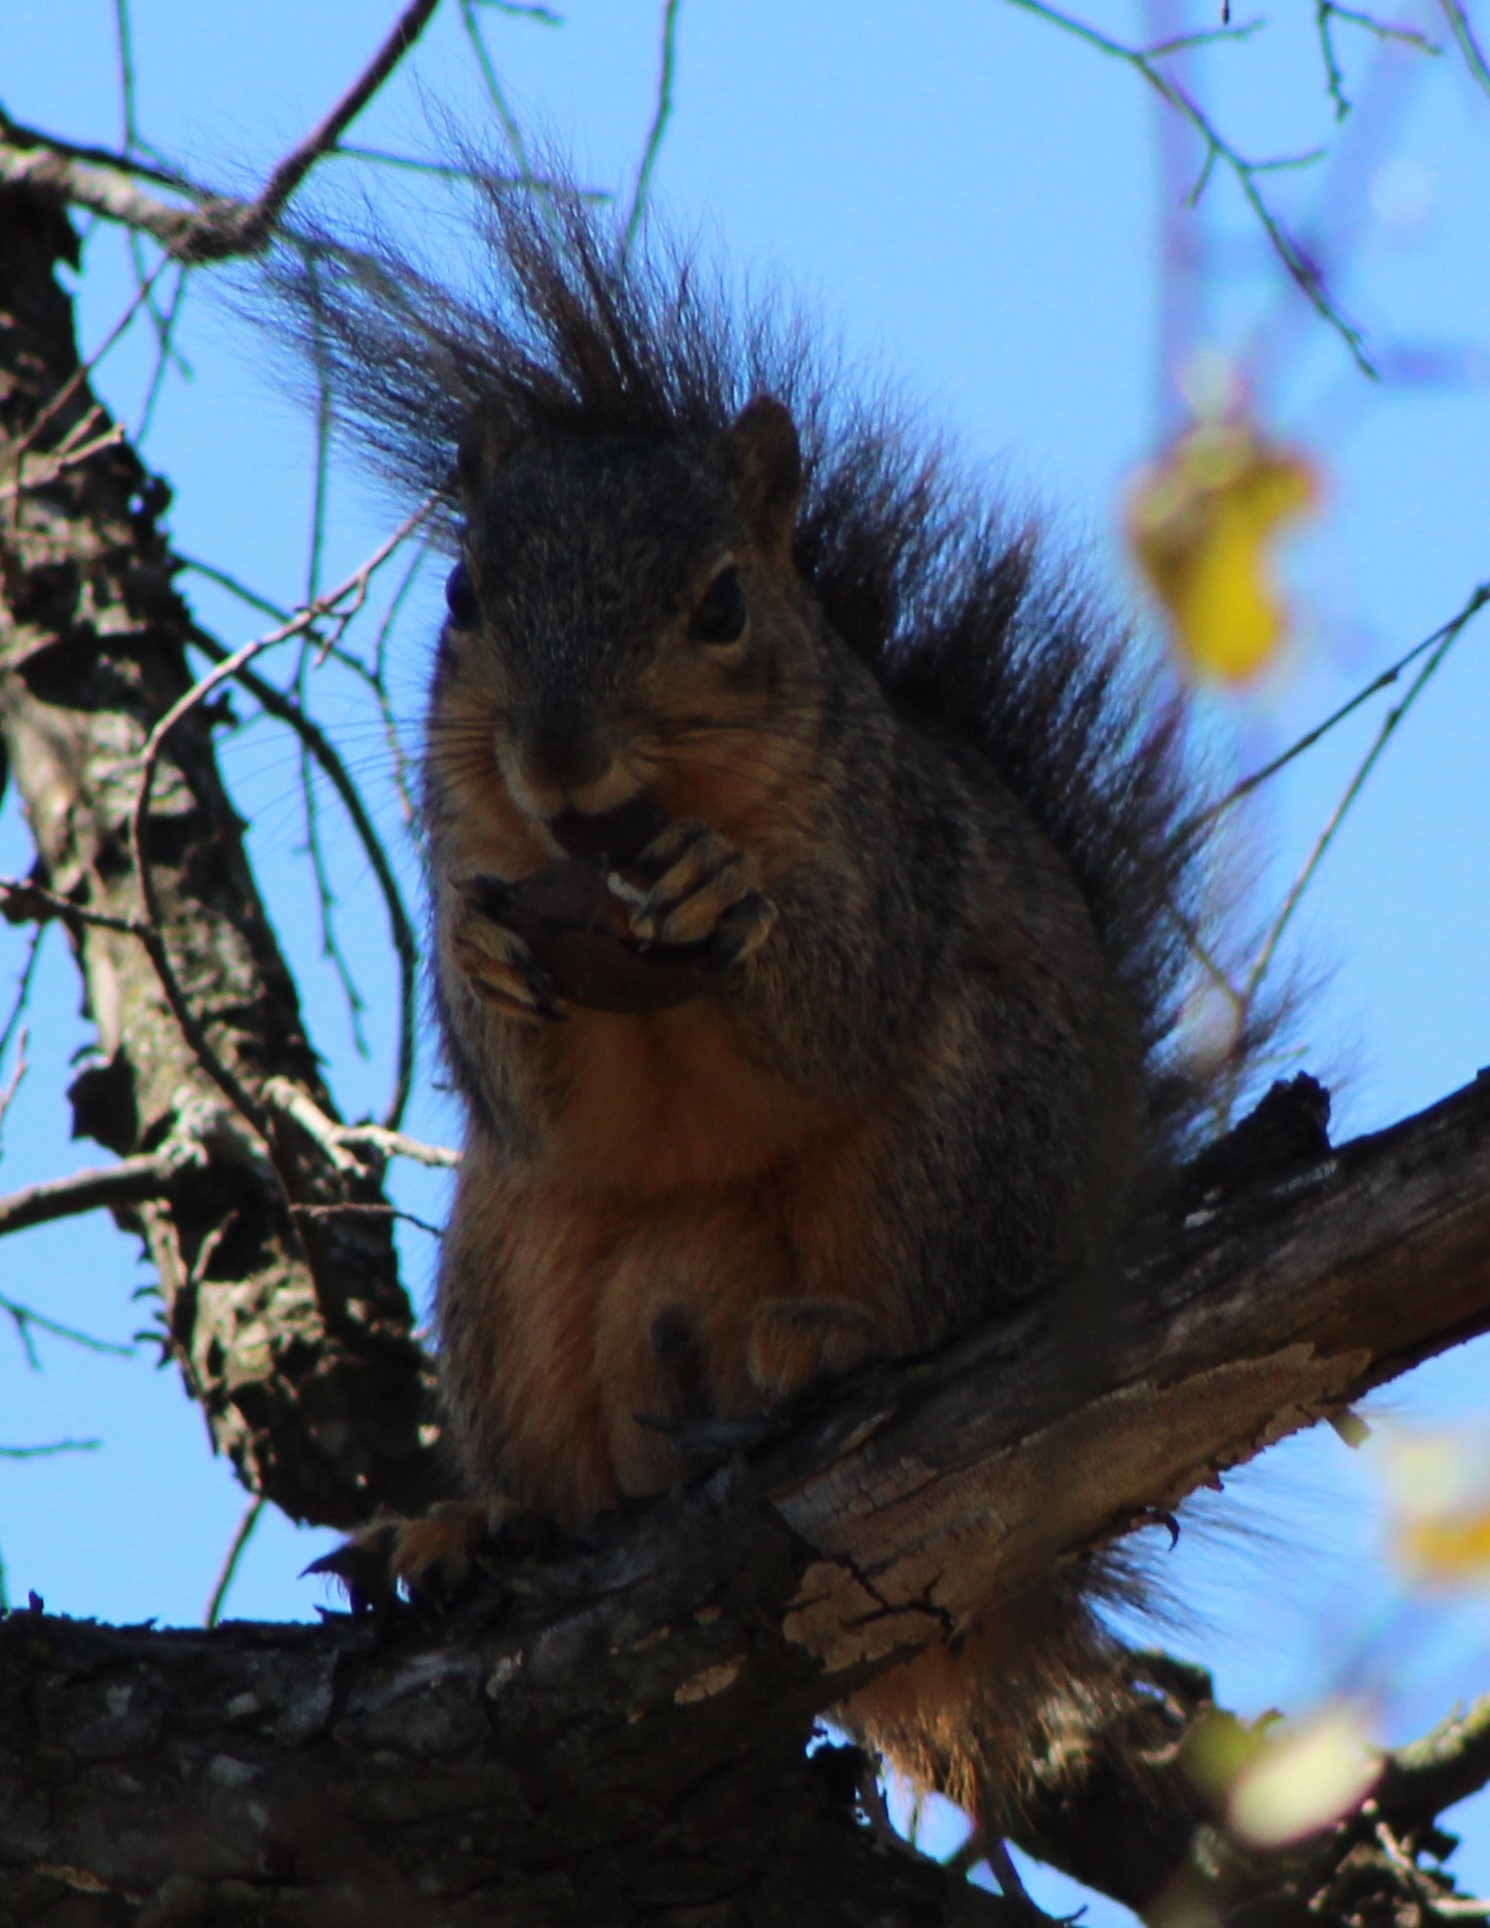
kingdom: Animalia
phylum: Chordata
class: Mammalia
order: Rodentia
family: Sciuridae
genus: Sciurus
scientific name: Sciurus niger
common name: Fox squirrel
